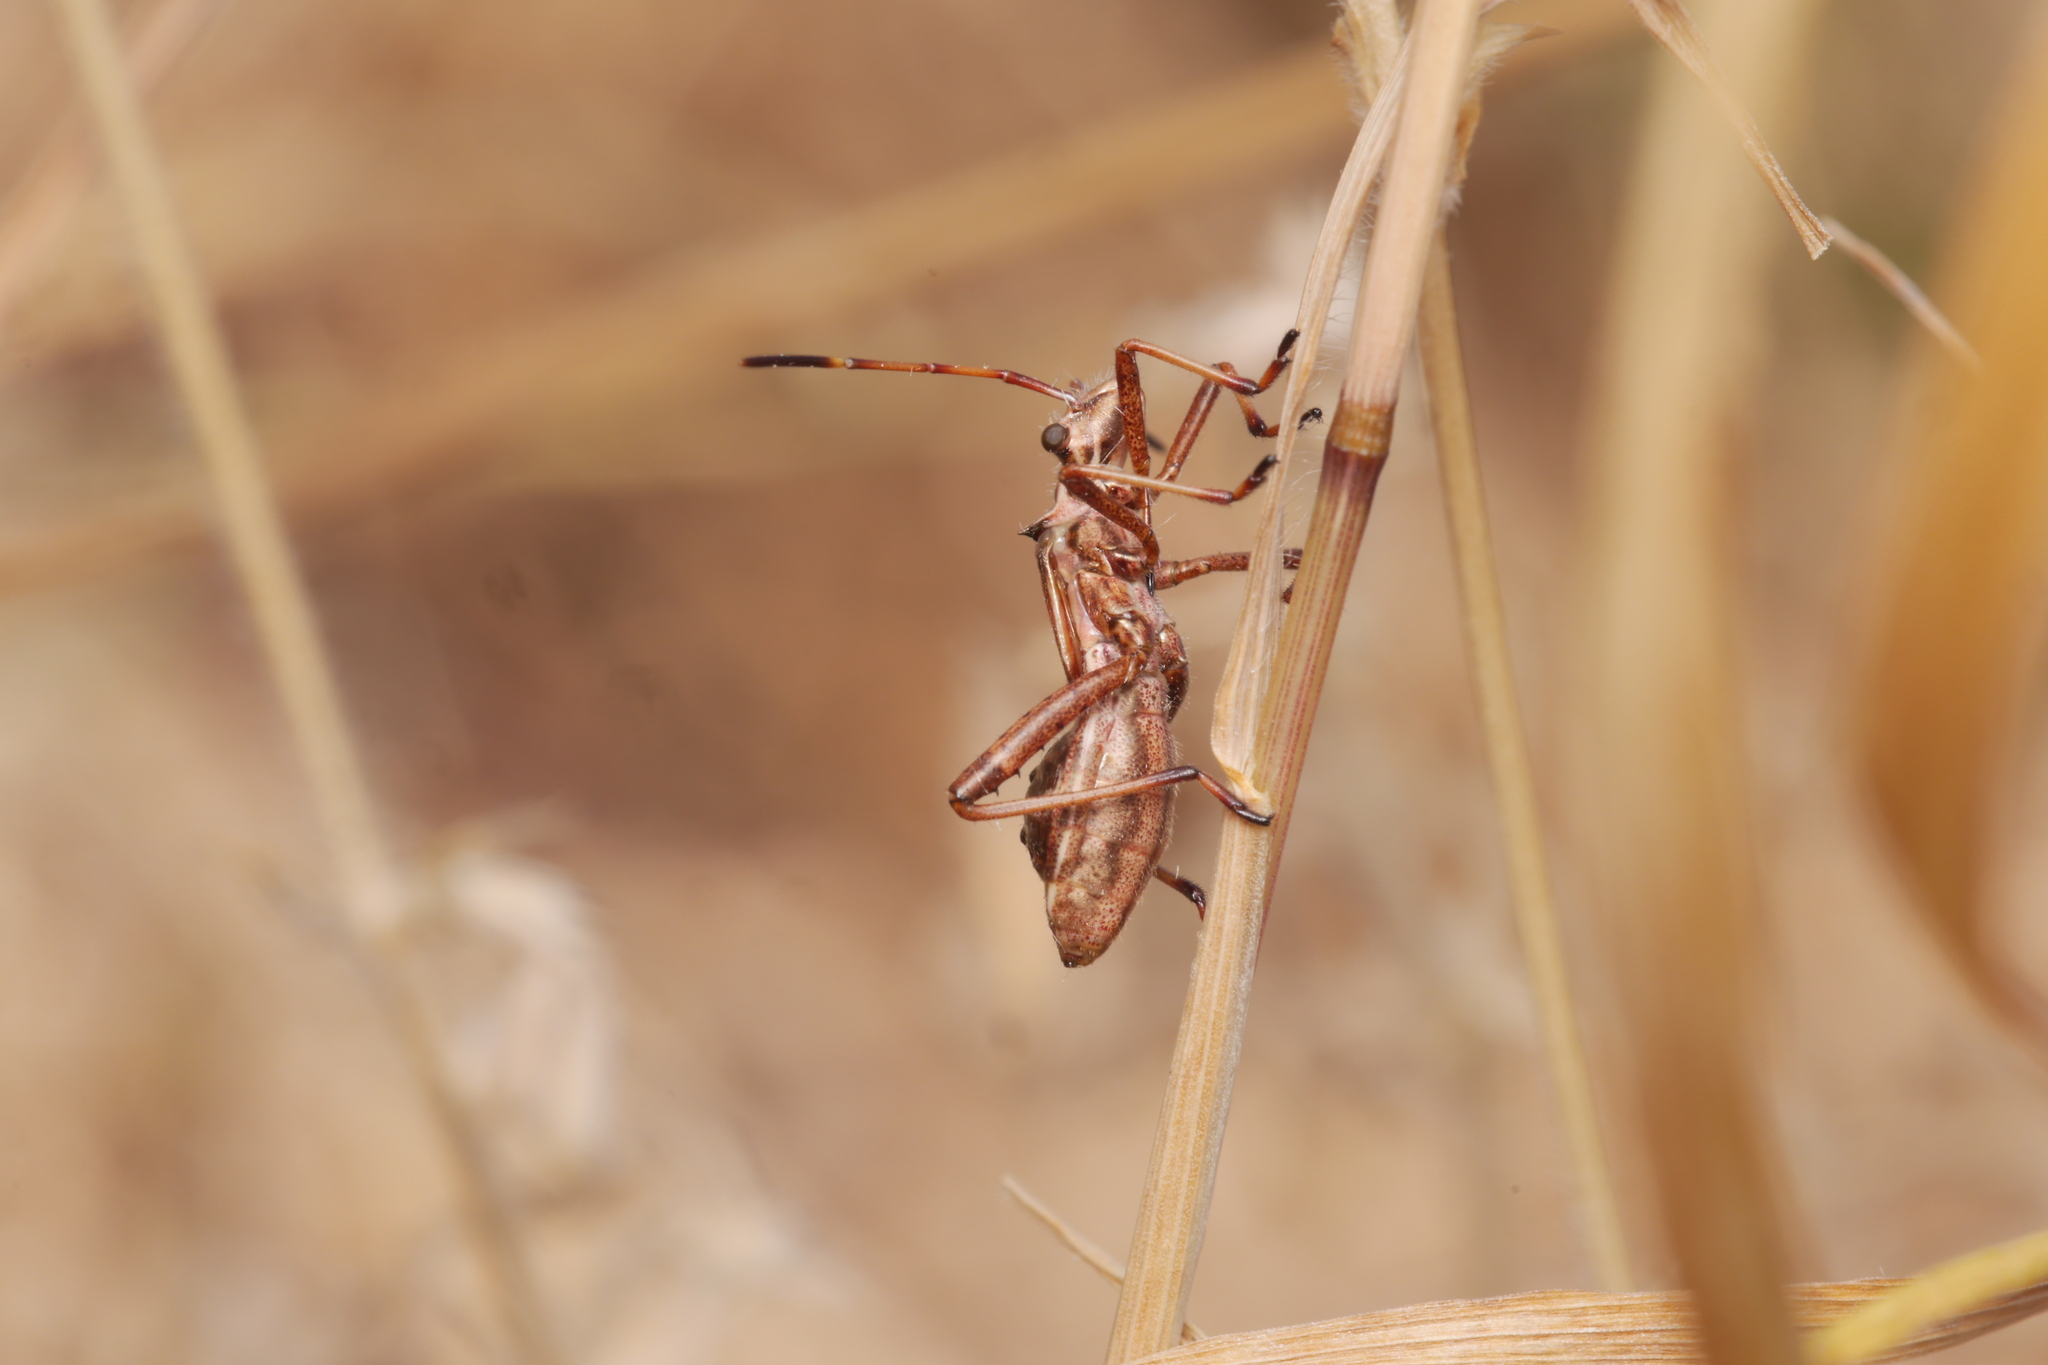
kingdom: Animalia
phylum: Arthropoda
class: Insecta
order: Hemiptera
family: Alydidae
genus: Camptopus
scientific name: Camptopus lateralis
